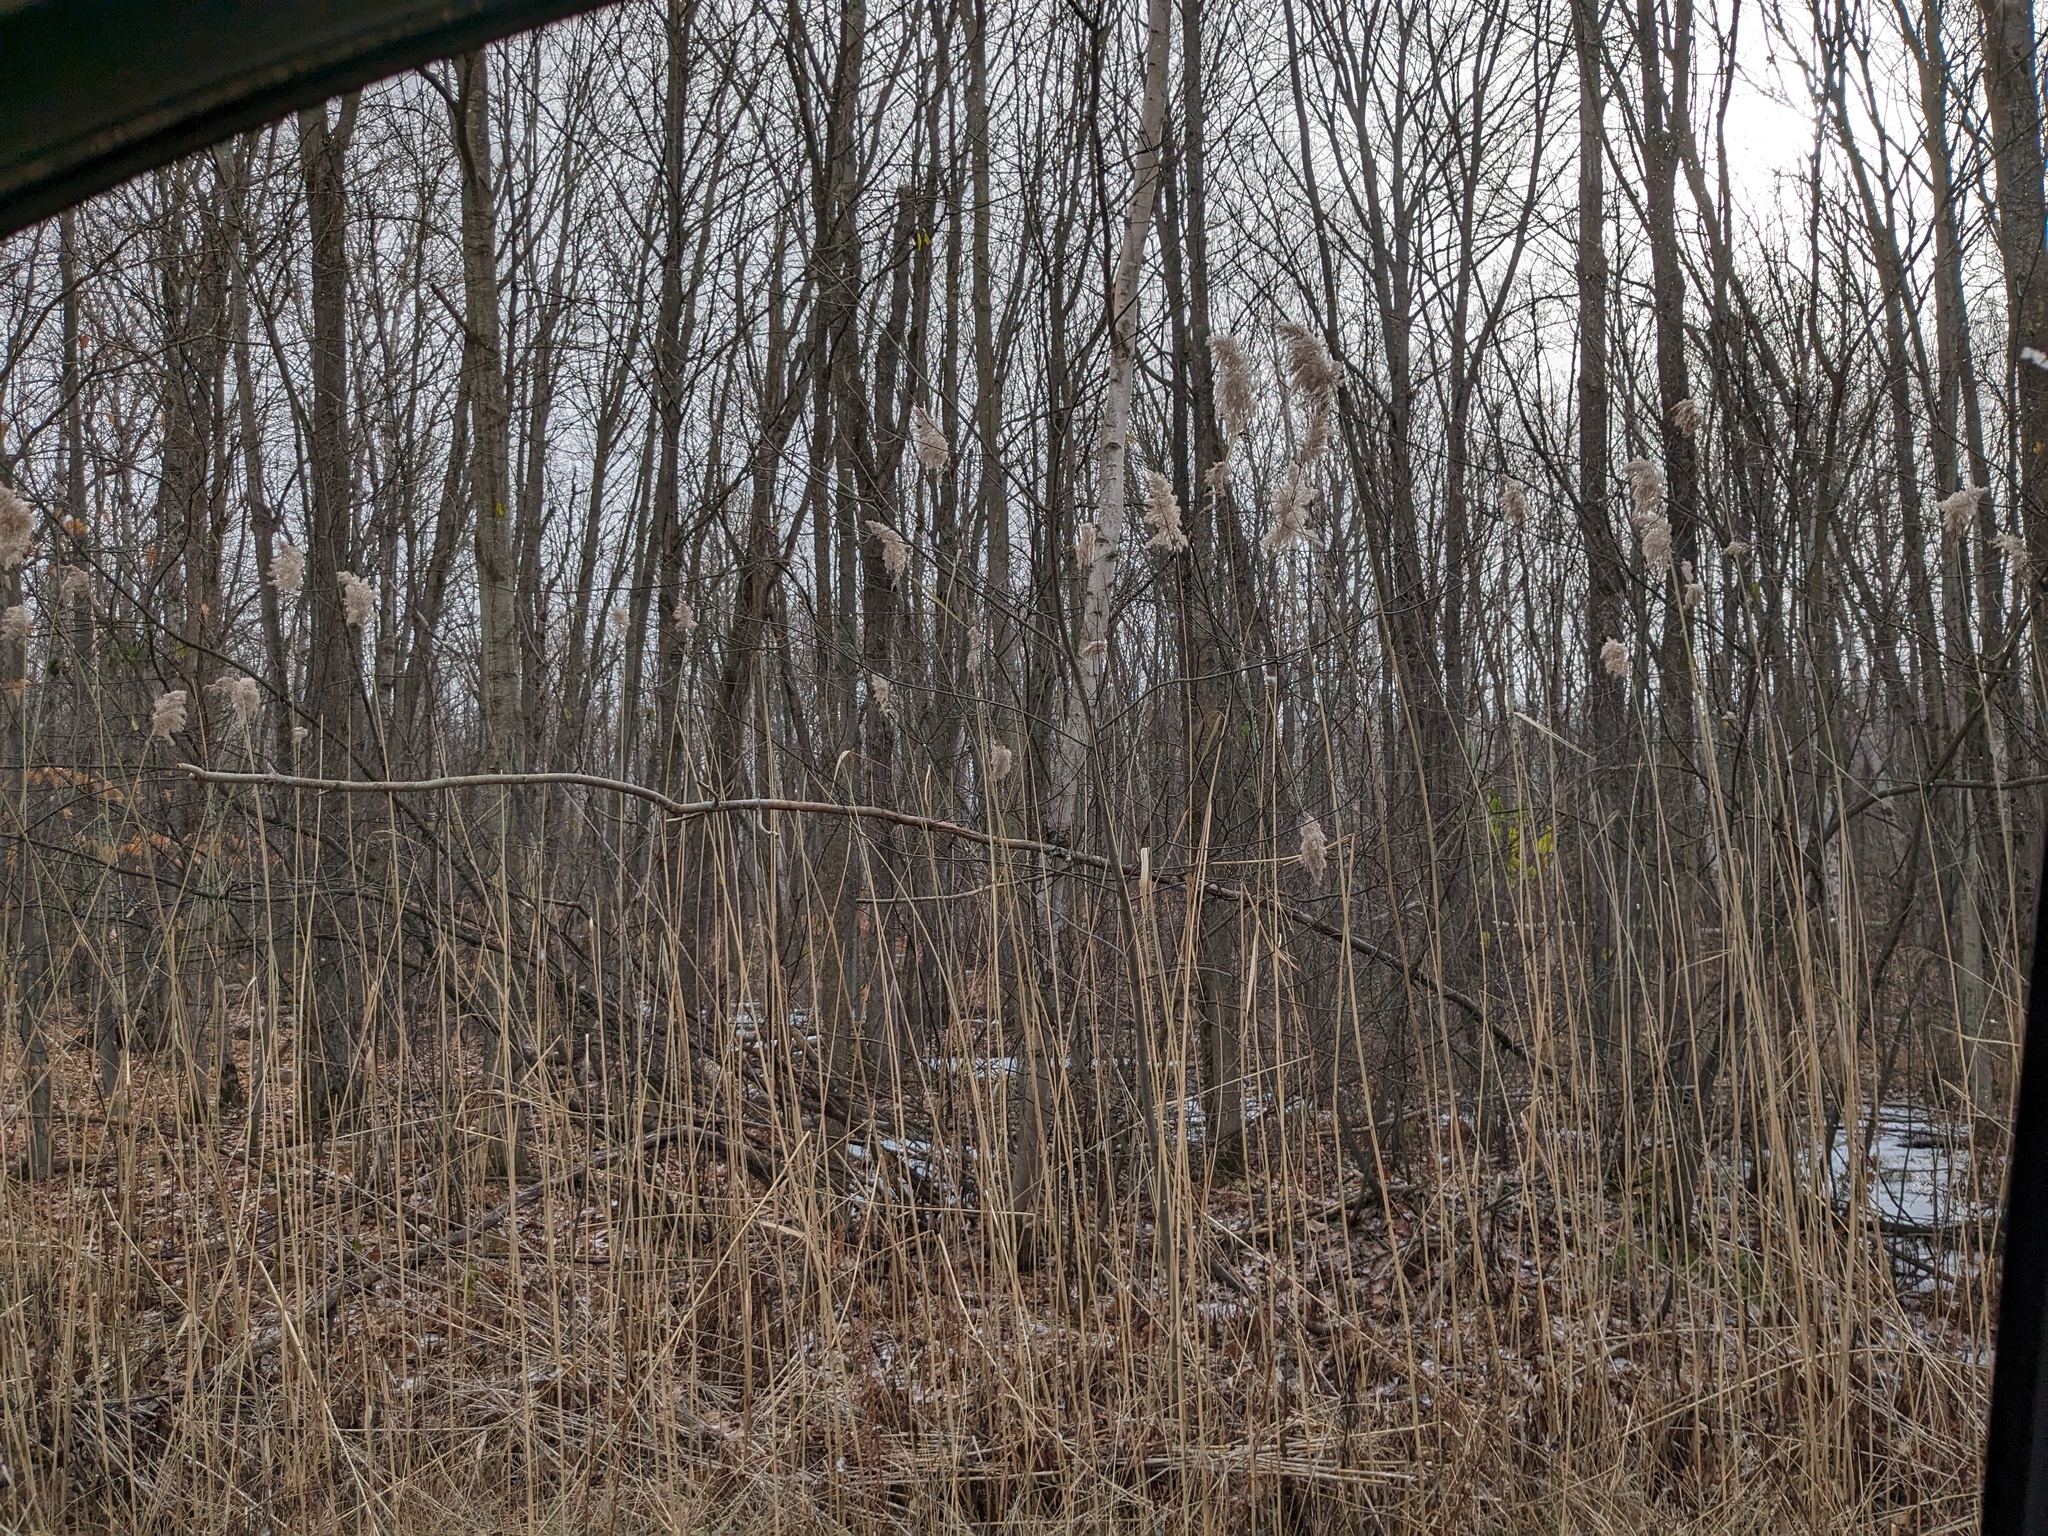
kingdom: Plantae
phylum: Tracheophyta
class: Liliopsida
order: Poales
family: Poaceae
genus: Phragmites
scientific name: Phragmites australis
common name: Common reed
